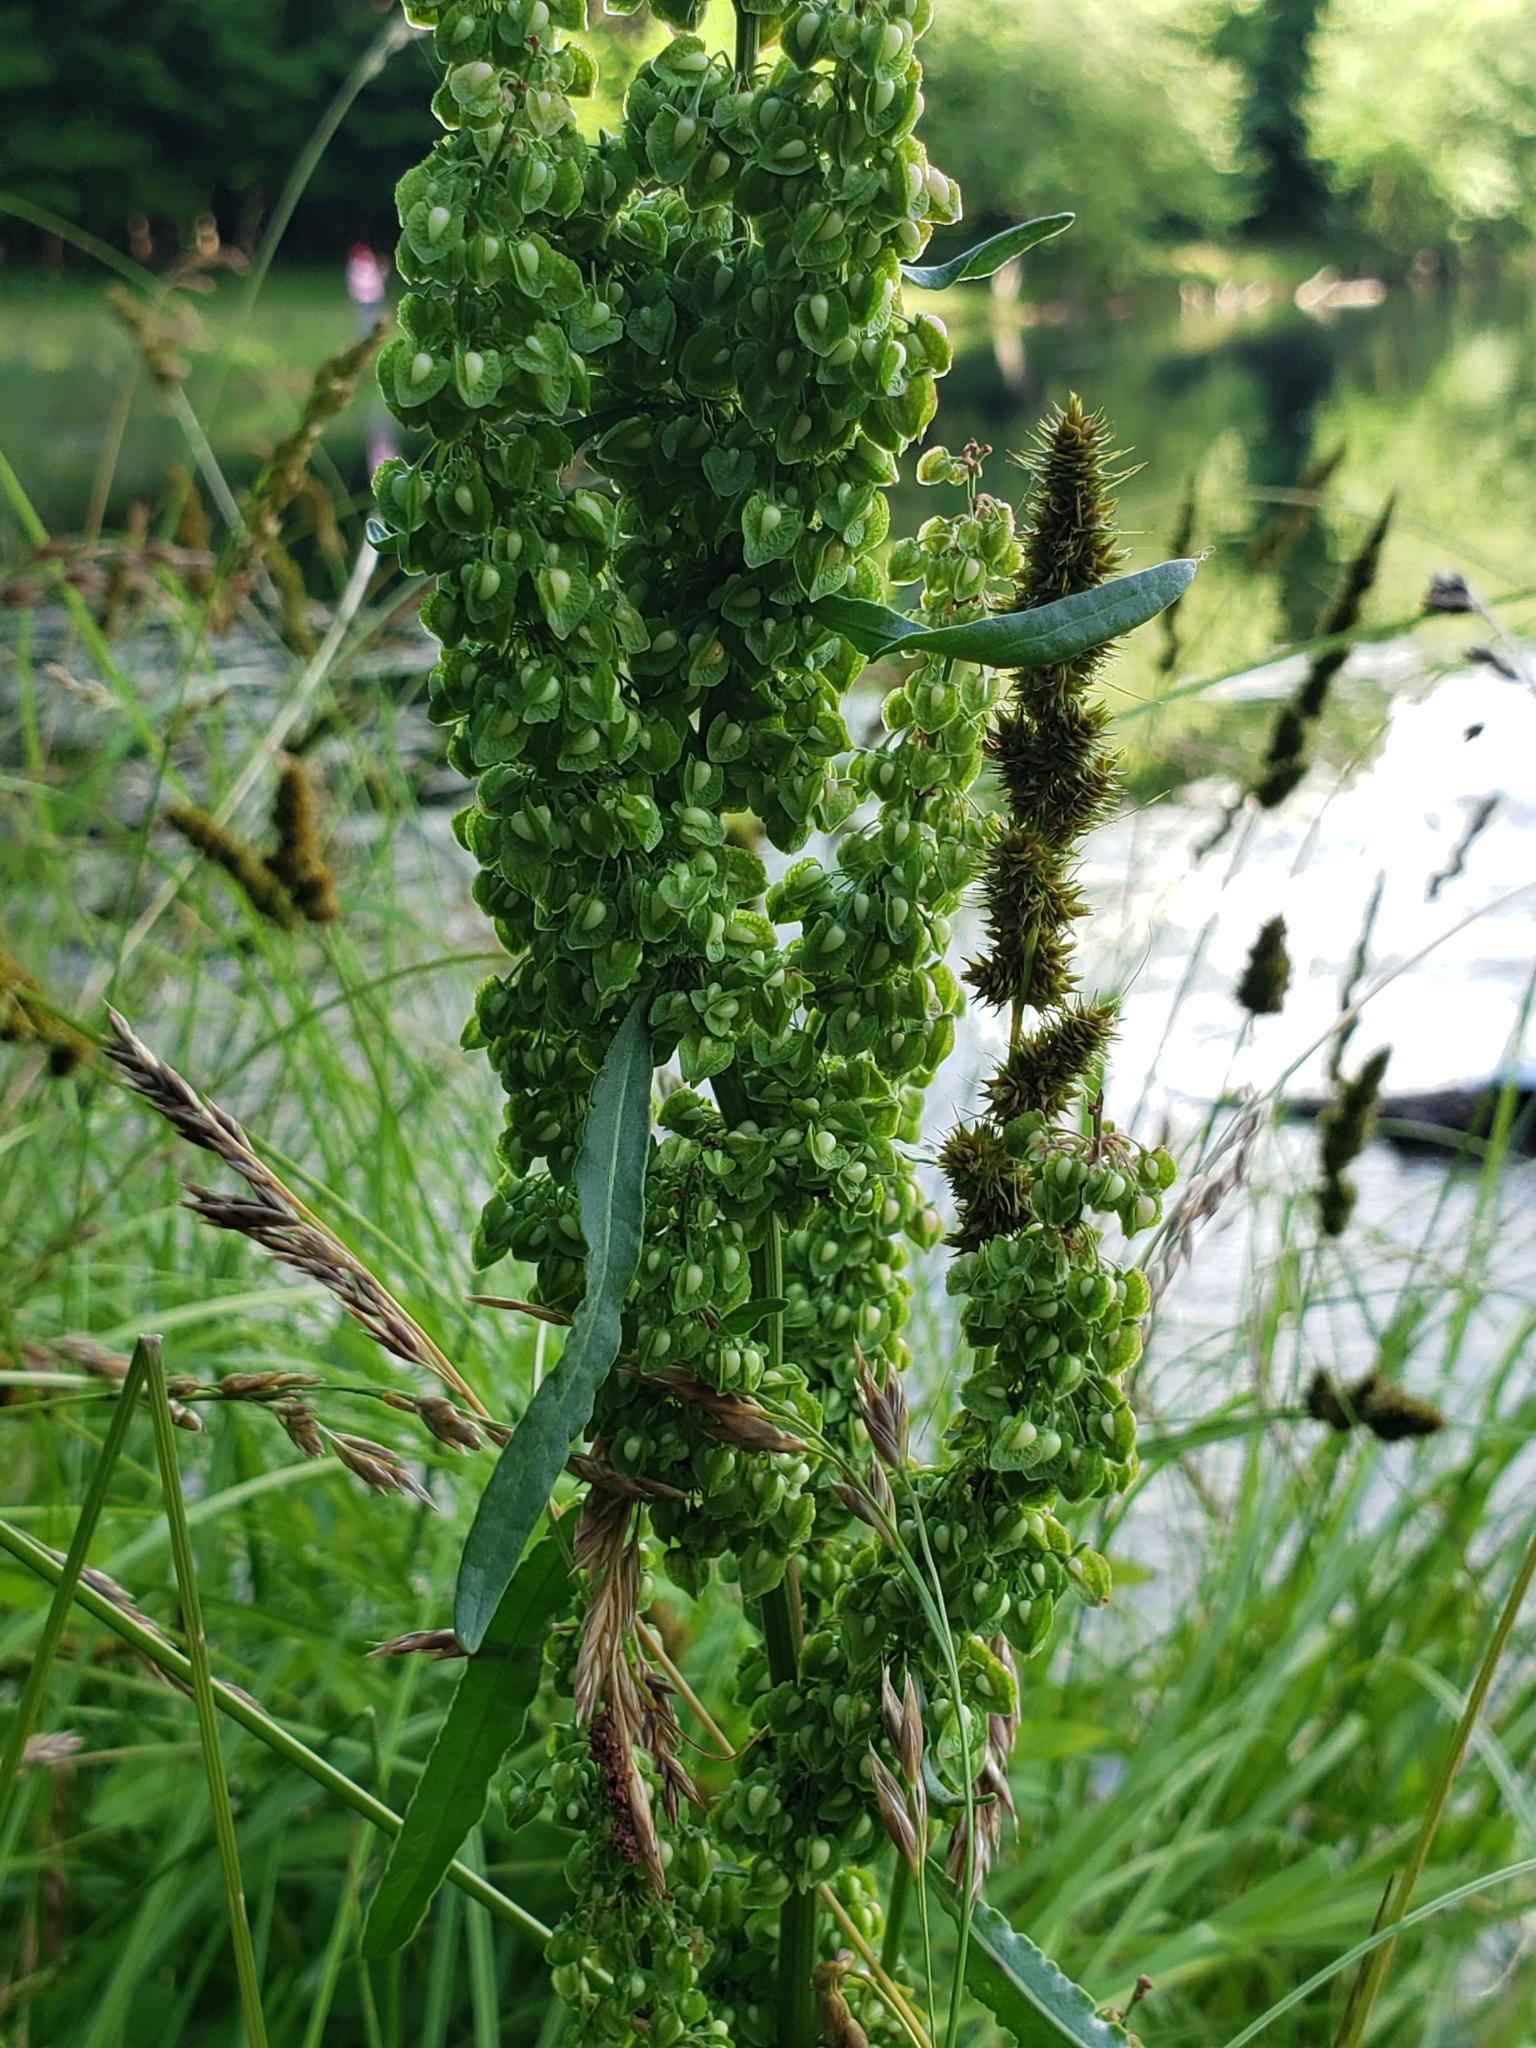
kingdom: Plantae
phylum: Tracheophyta
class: Magnoliopsida
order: Caryophyllales
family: Polygonaceae
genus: Rumex
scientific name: Rumex crispus
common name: Curled dock
